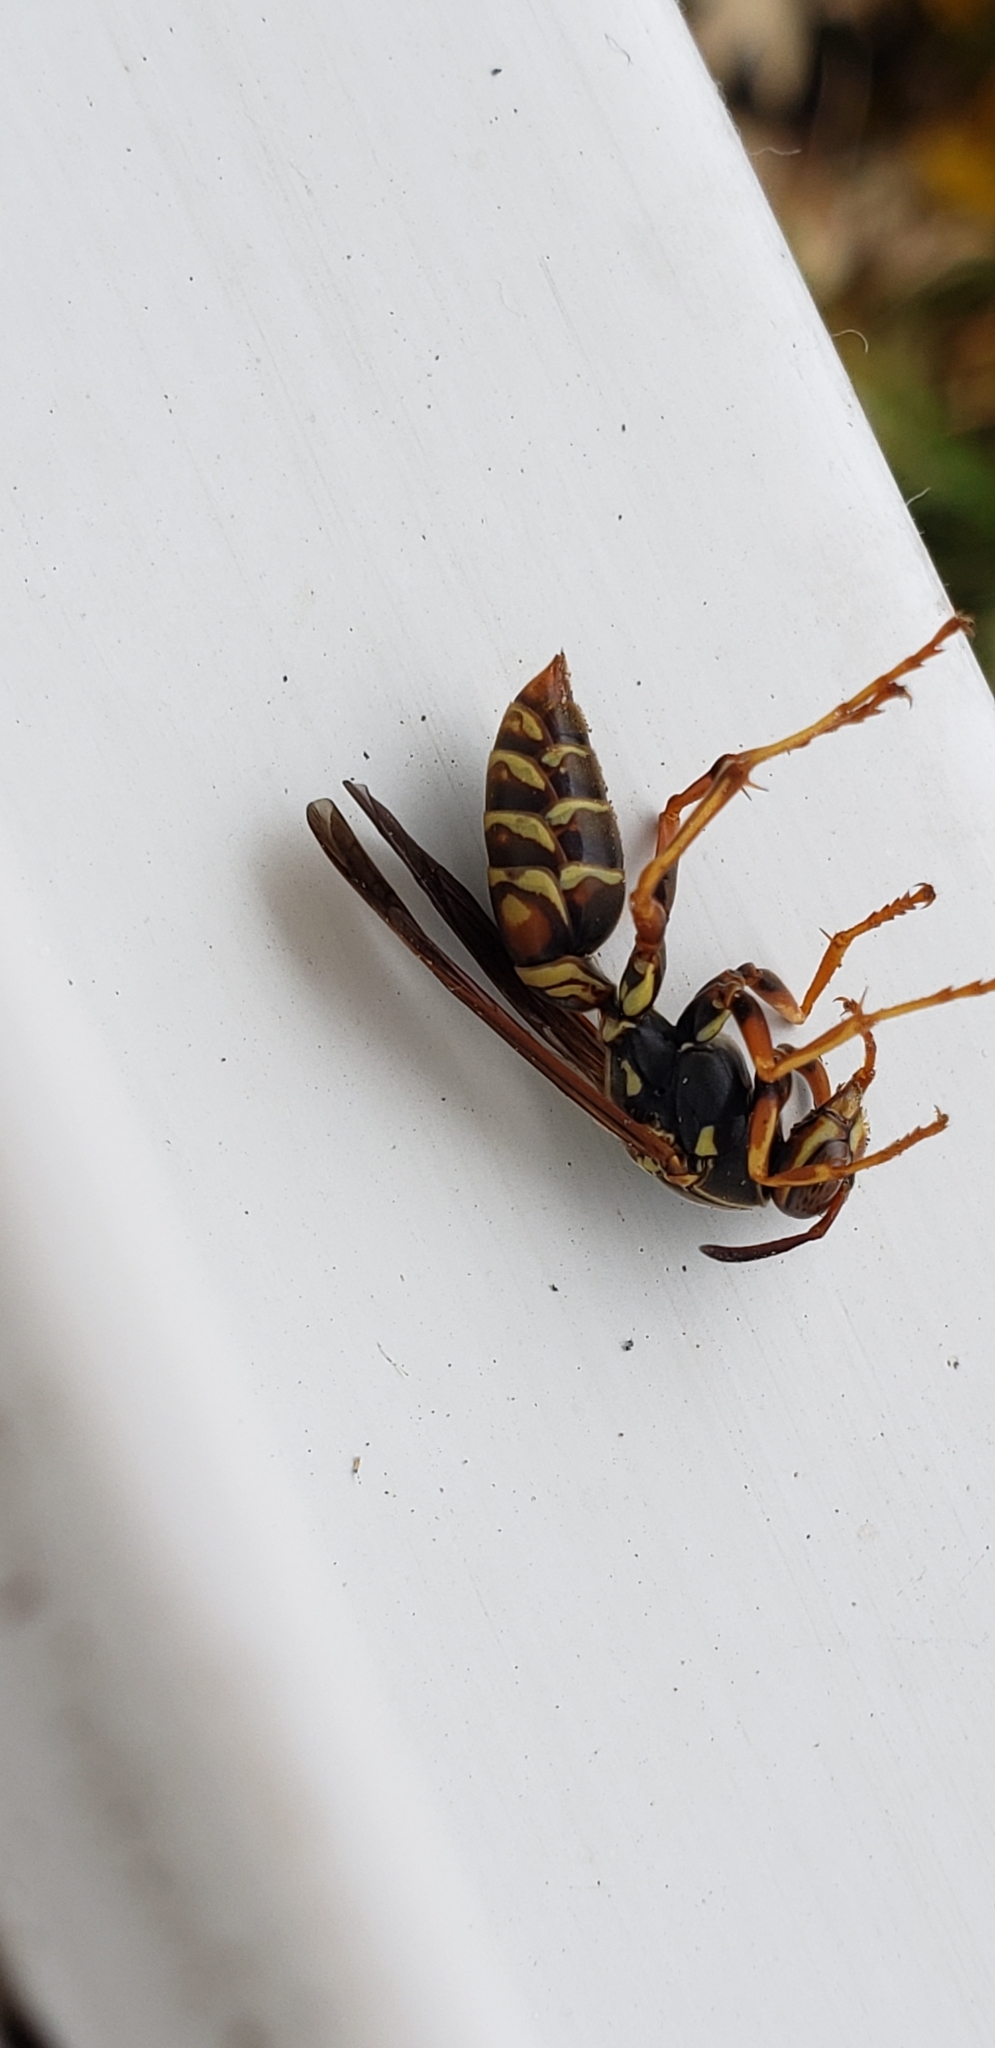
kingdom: Animalia
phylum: Arthropoda
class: Insecta
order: Hymenoptera
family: Eumenidae
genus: Polistes
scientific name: Polistes fuscatus
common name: Dark paper wasp
